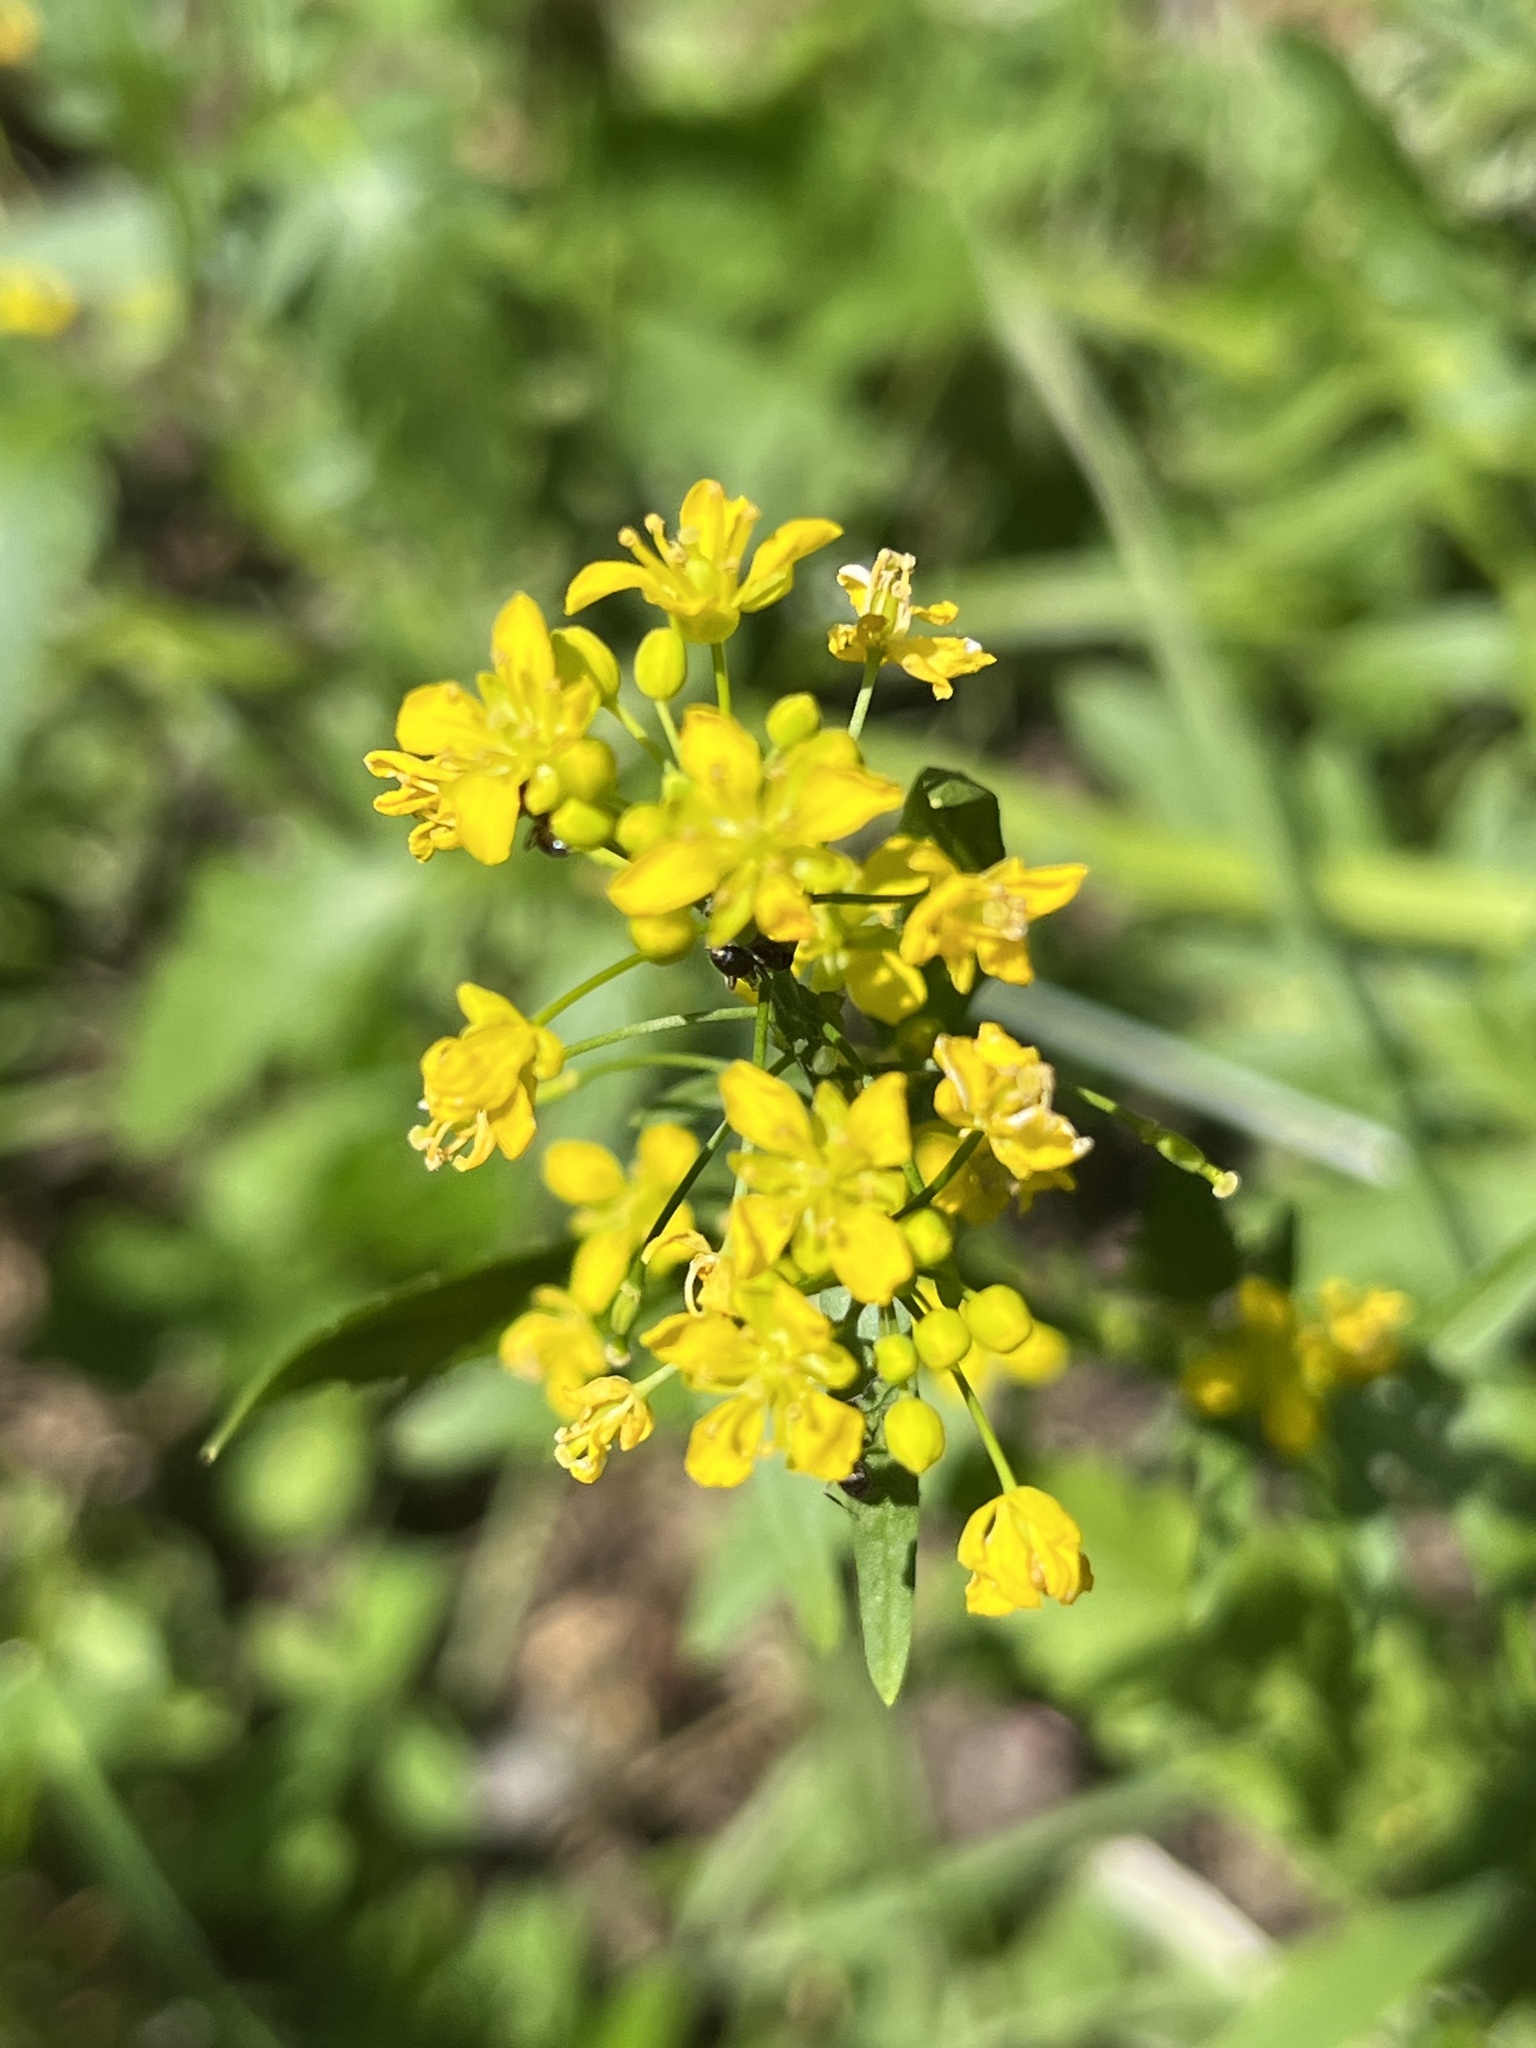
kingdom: Plantae
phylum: Tracheophyta
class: Magnoliopsida
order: Brassicales
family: Brassicaceae
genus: Rorippa
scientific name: Rorippa sylvestris
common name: Creeping yellowcress
